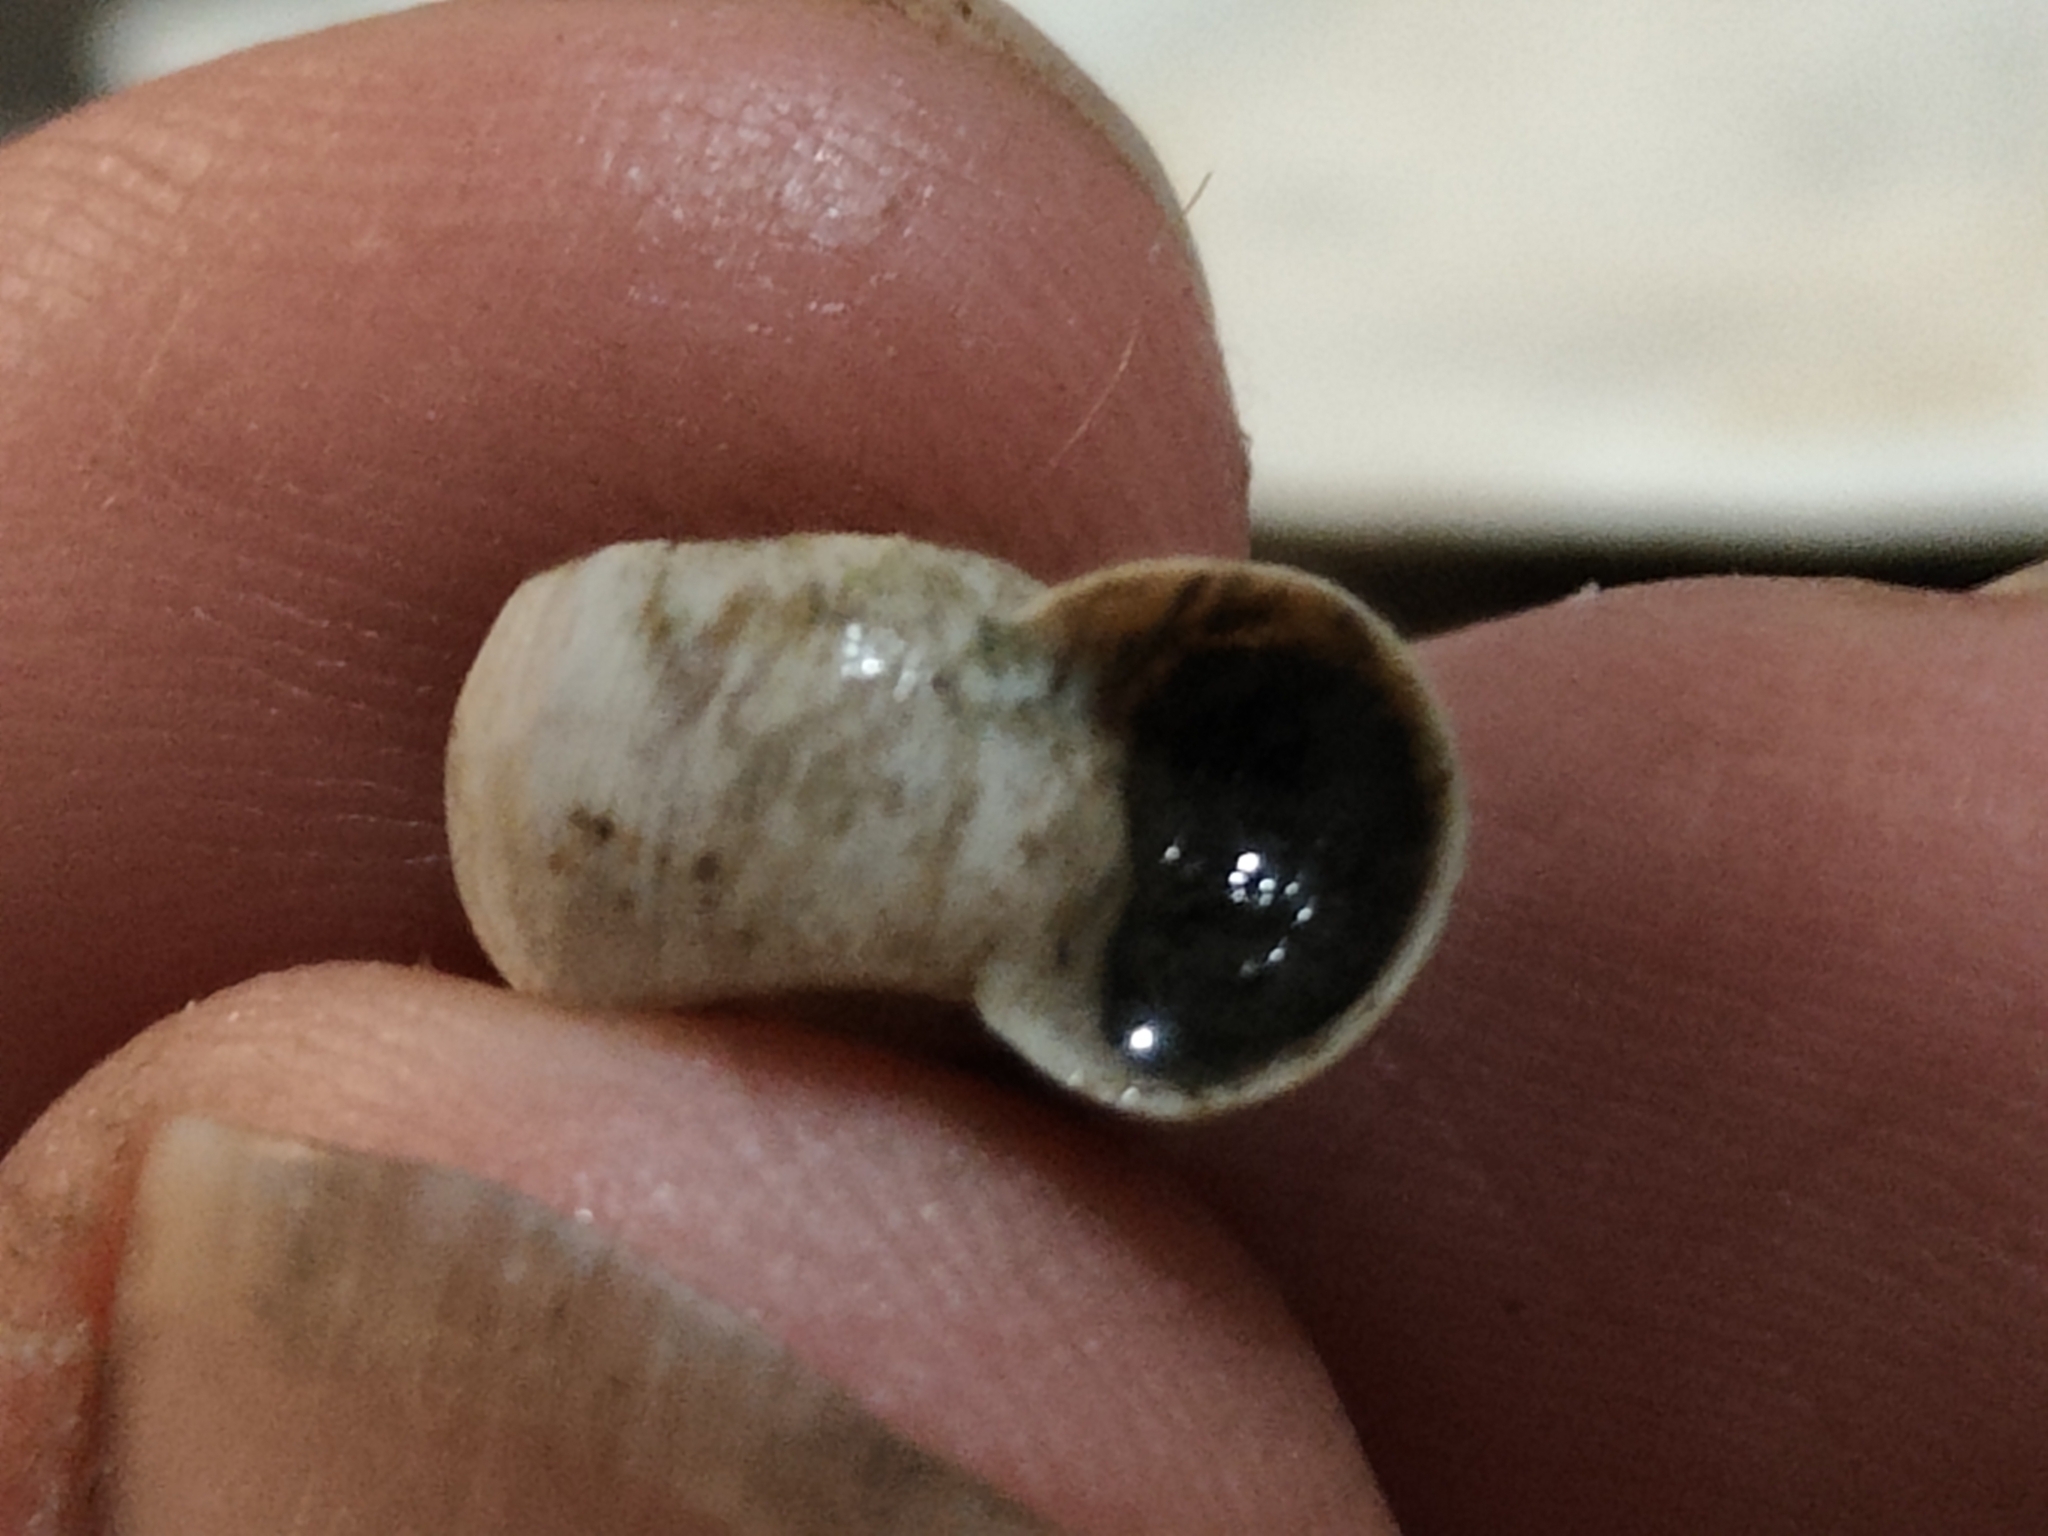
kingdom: Animalia
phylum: Mollusca
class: Gastropoda
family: Planorbidae
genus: Planorbella
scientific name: Planorbella trivolvis
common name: Marsh rams-horn
